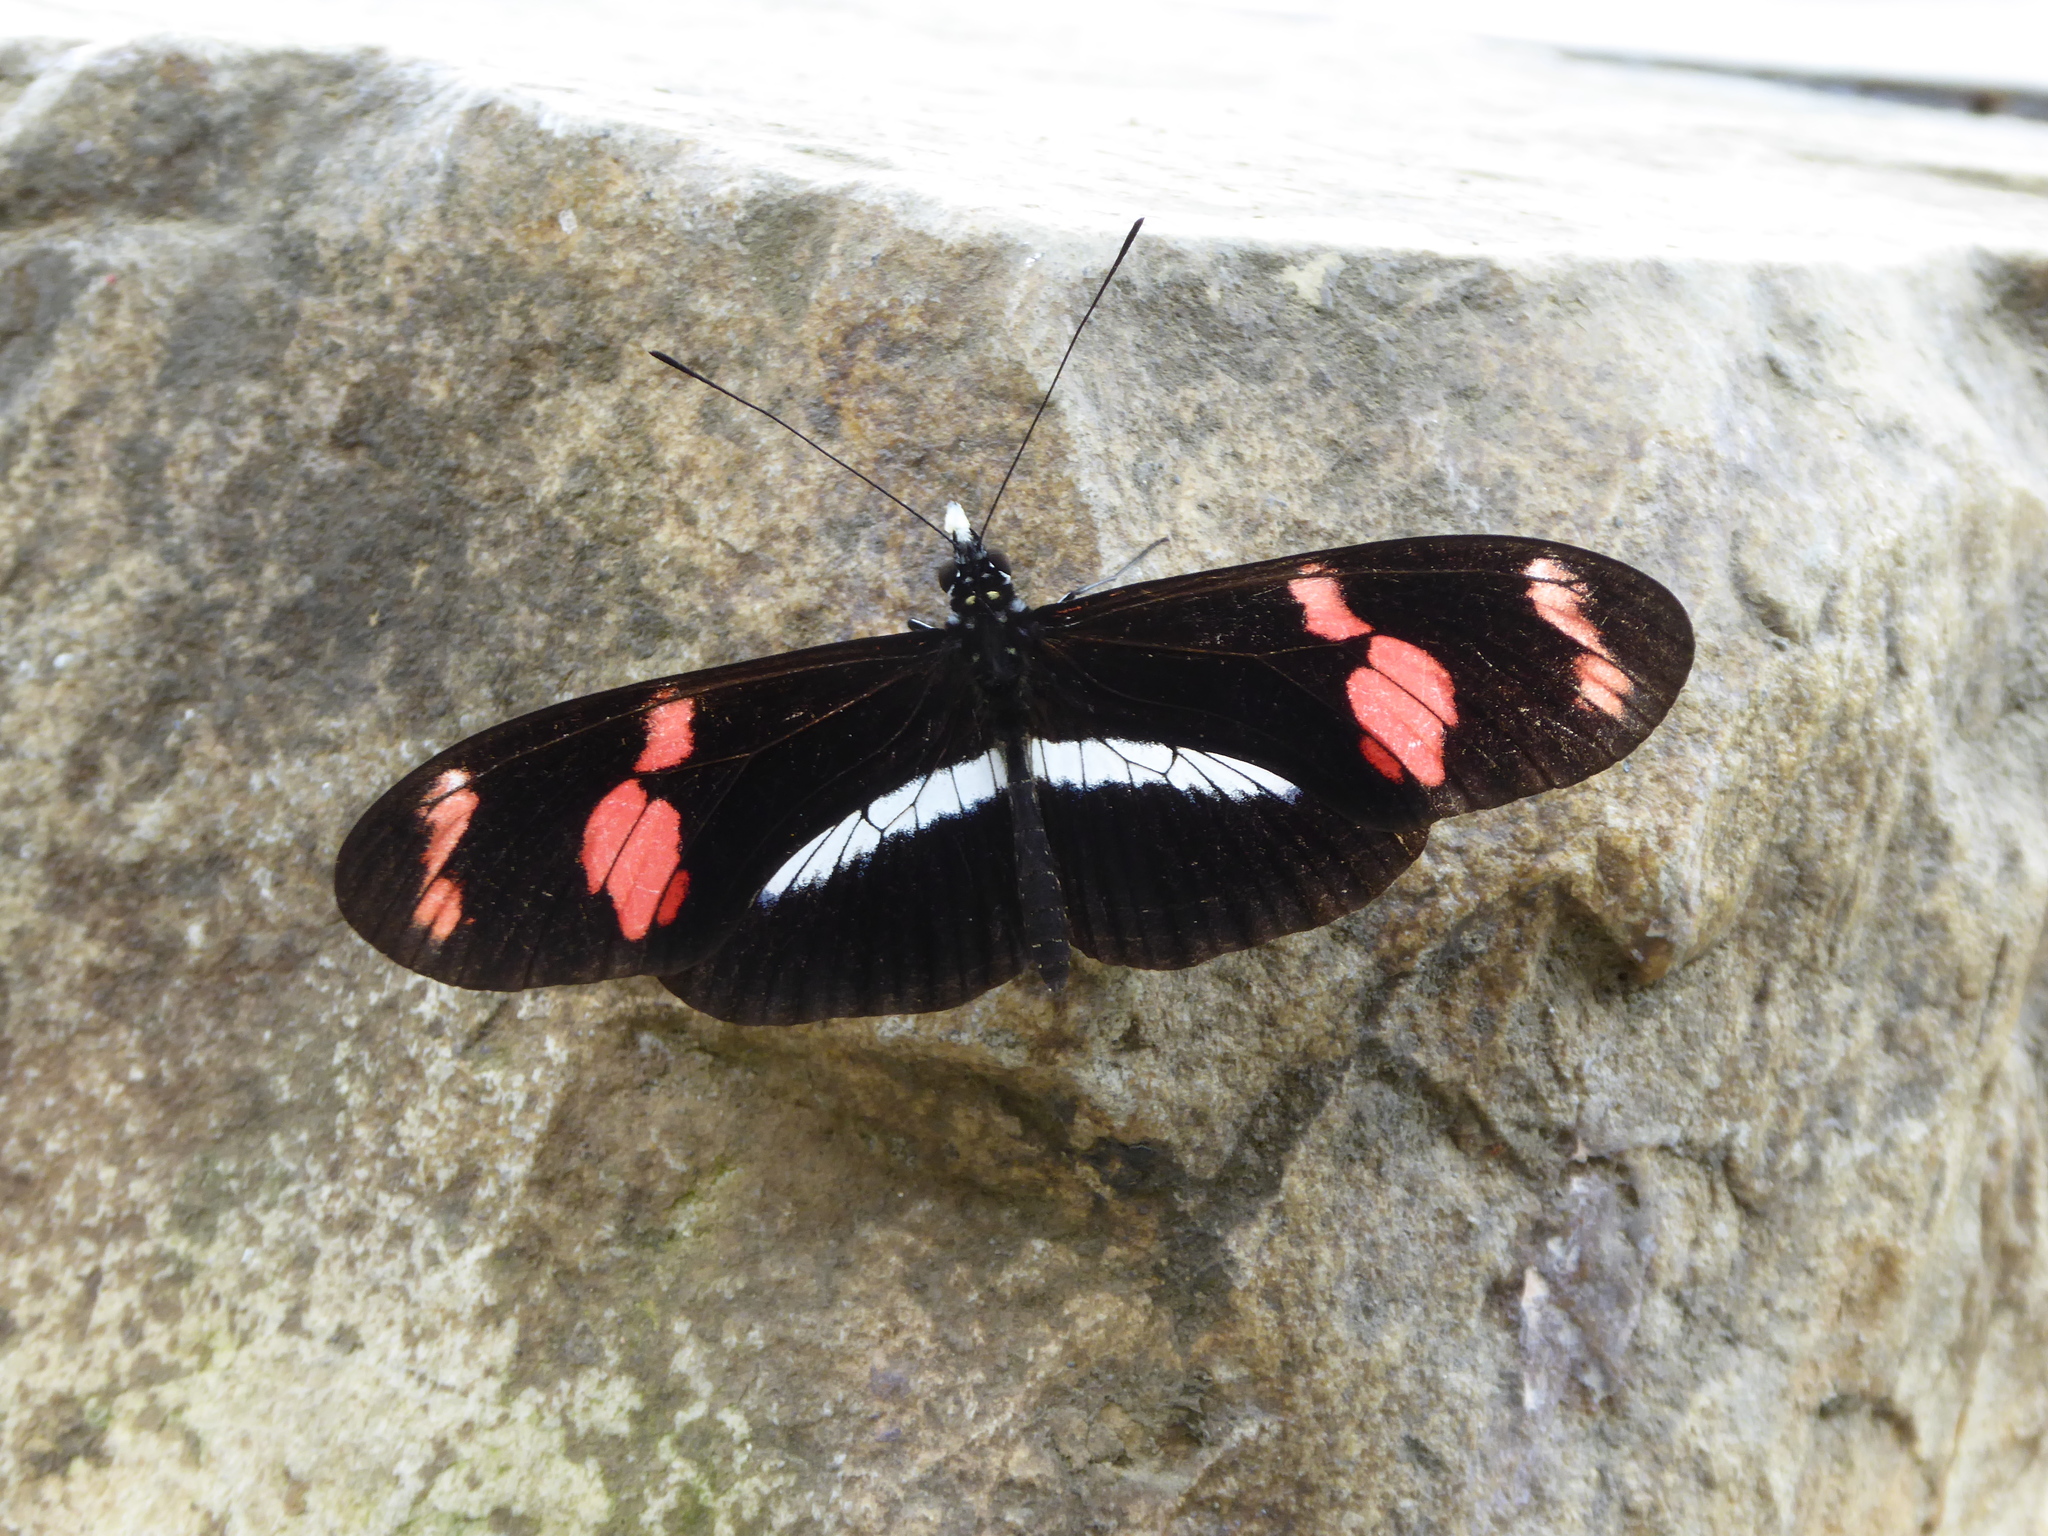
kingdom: Animalia
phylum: Arthropoda
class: Insecta
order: Lepidoptera
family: Nymphalidae
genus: Heliconius
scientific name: Heliconius telesiphe
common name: Telesiphe longwing
